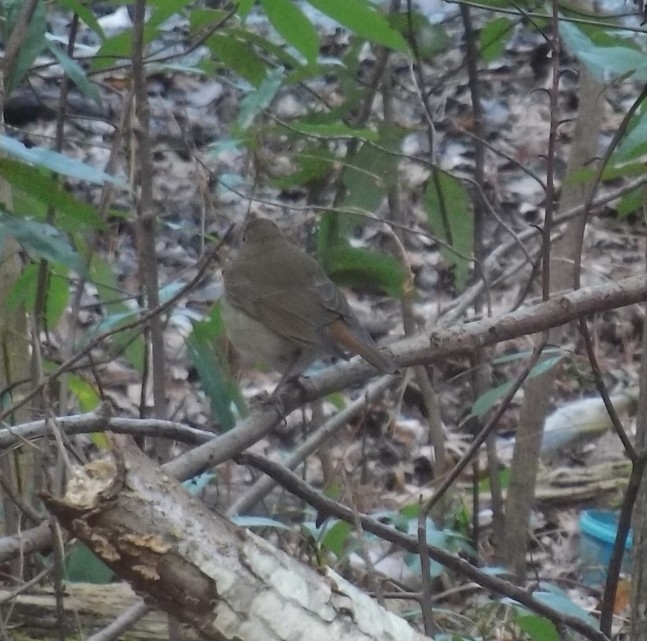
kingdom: Animalia
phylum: Chordata
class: Aves
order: Passeriformes
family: Turdidae
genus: Catharus
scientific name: Catharus guttatus
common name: Hermit thrush
